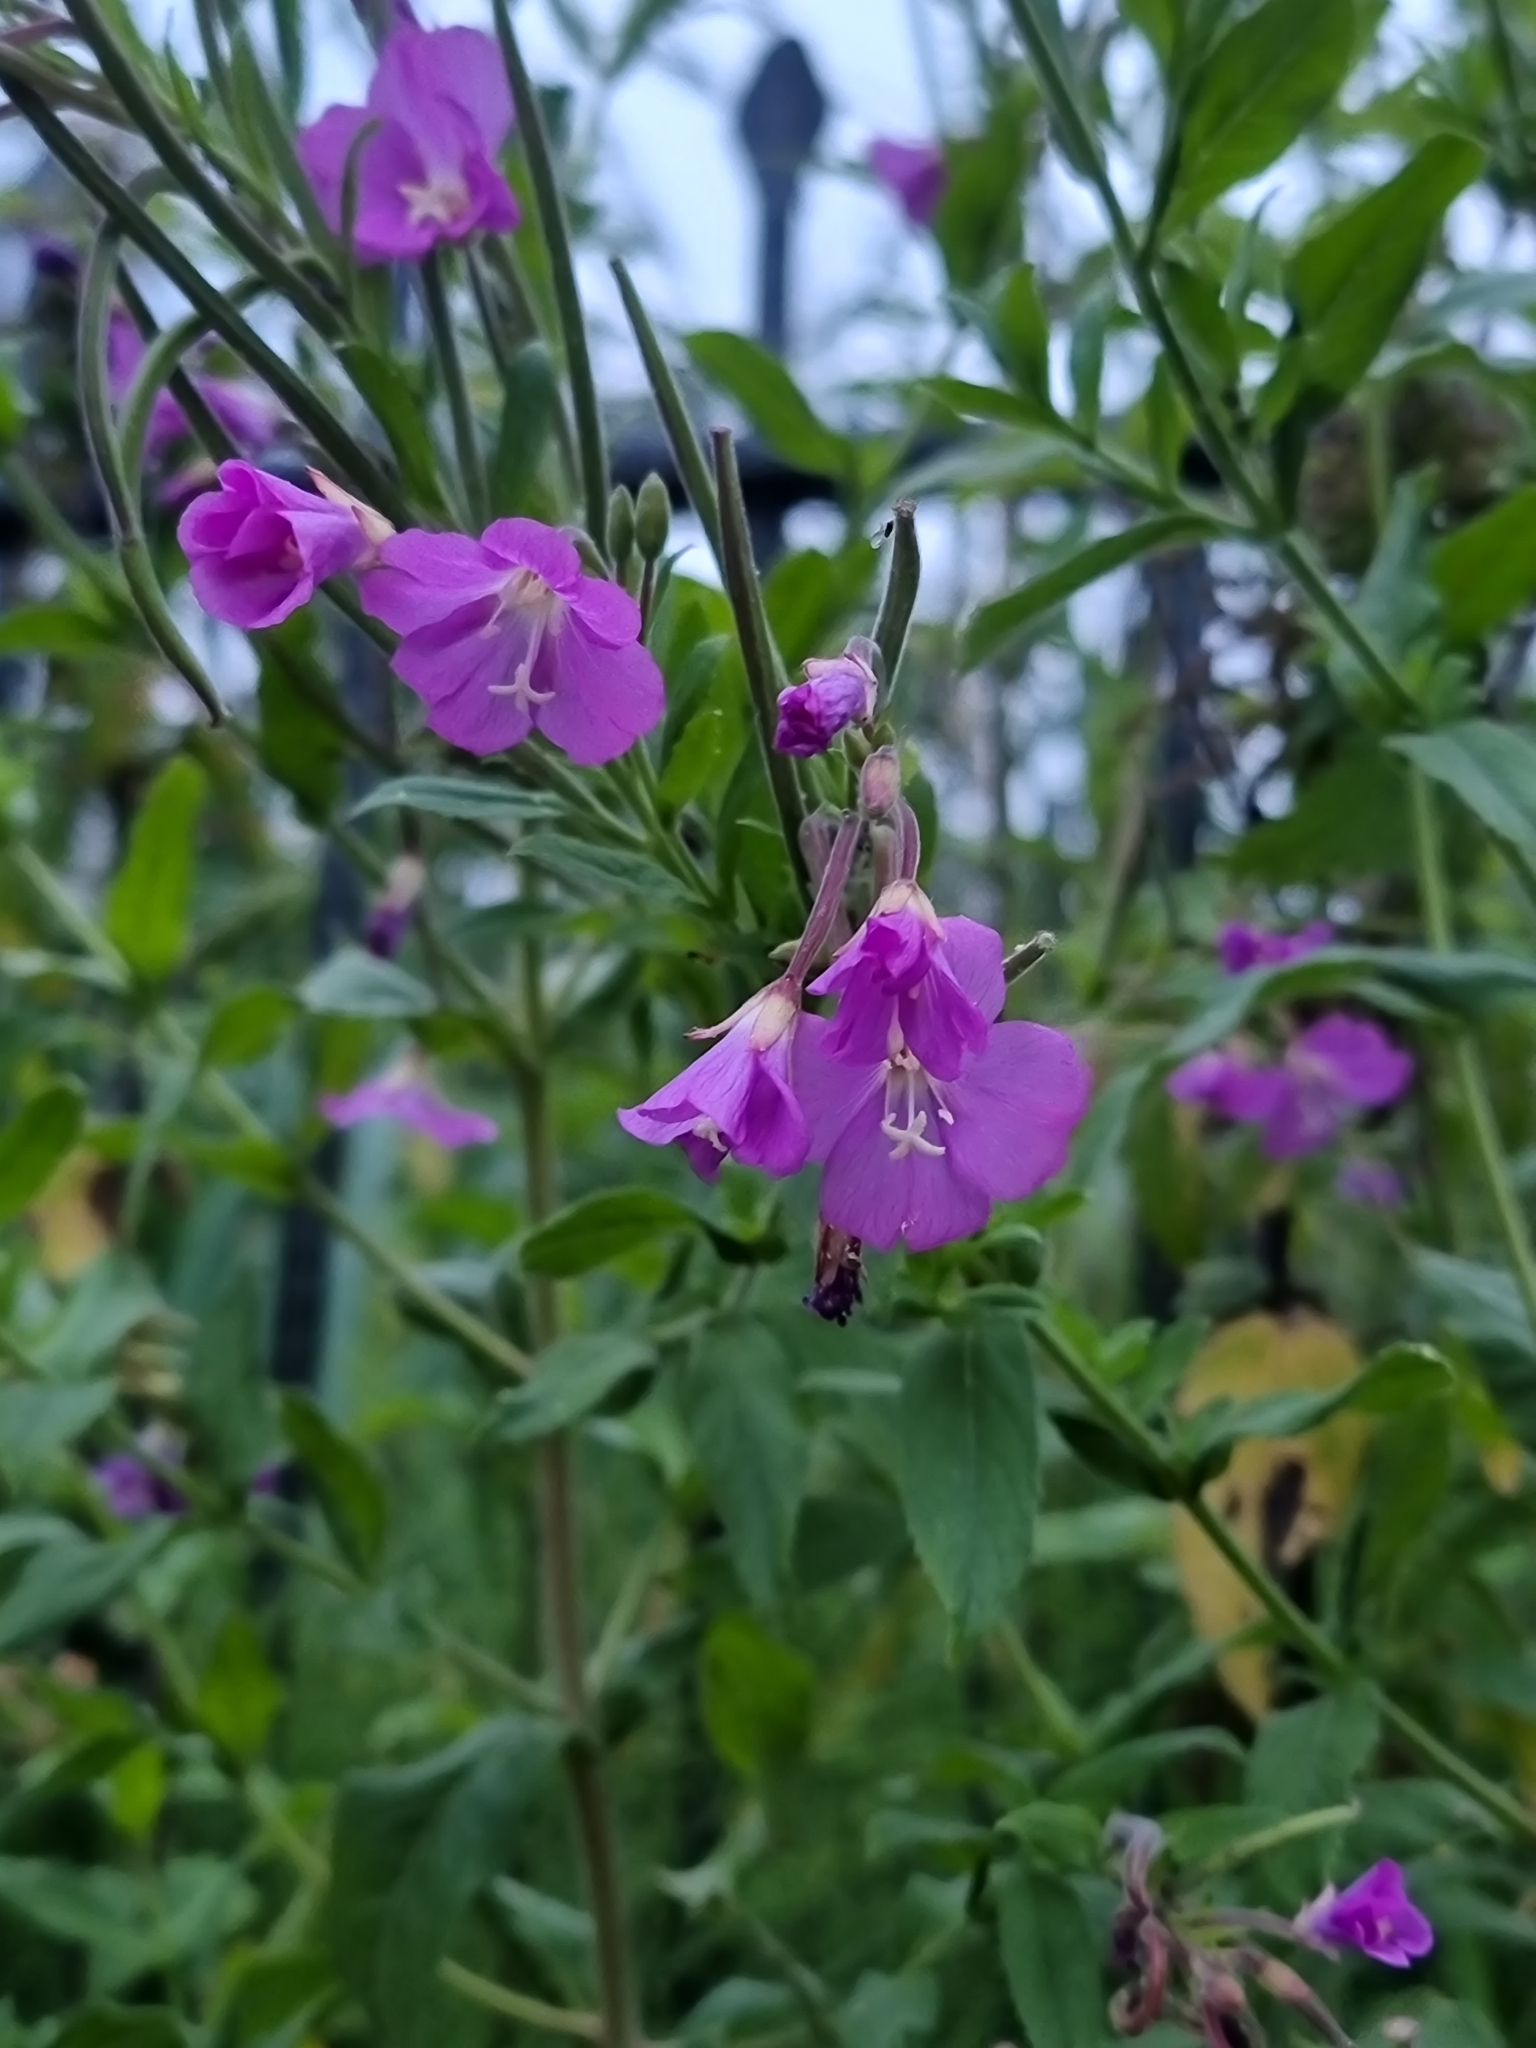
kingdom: Plantae
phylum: Tracheophyta
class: Magnoliopsida
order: Myrtales
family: Onagraceae
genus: Epilobium
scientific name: Epilobium hirsutum
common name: Great willowherb
